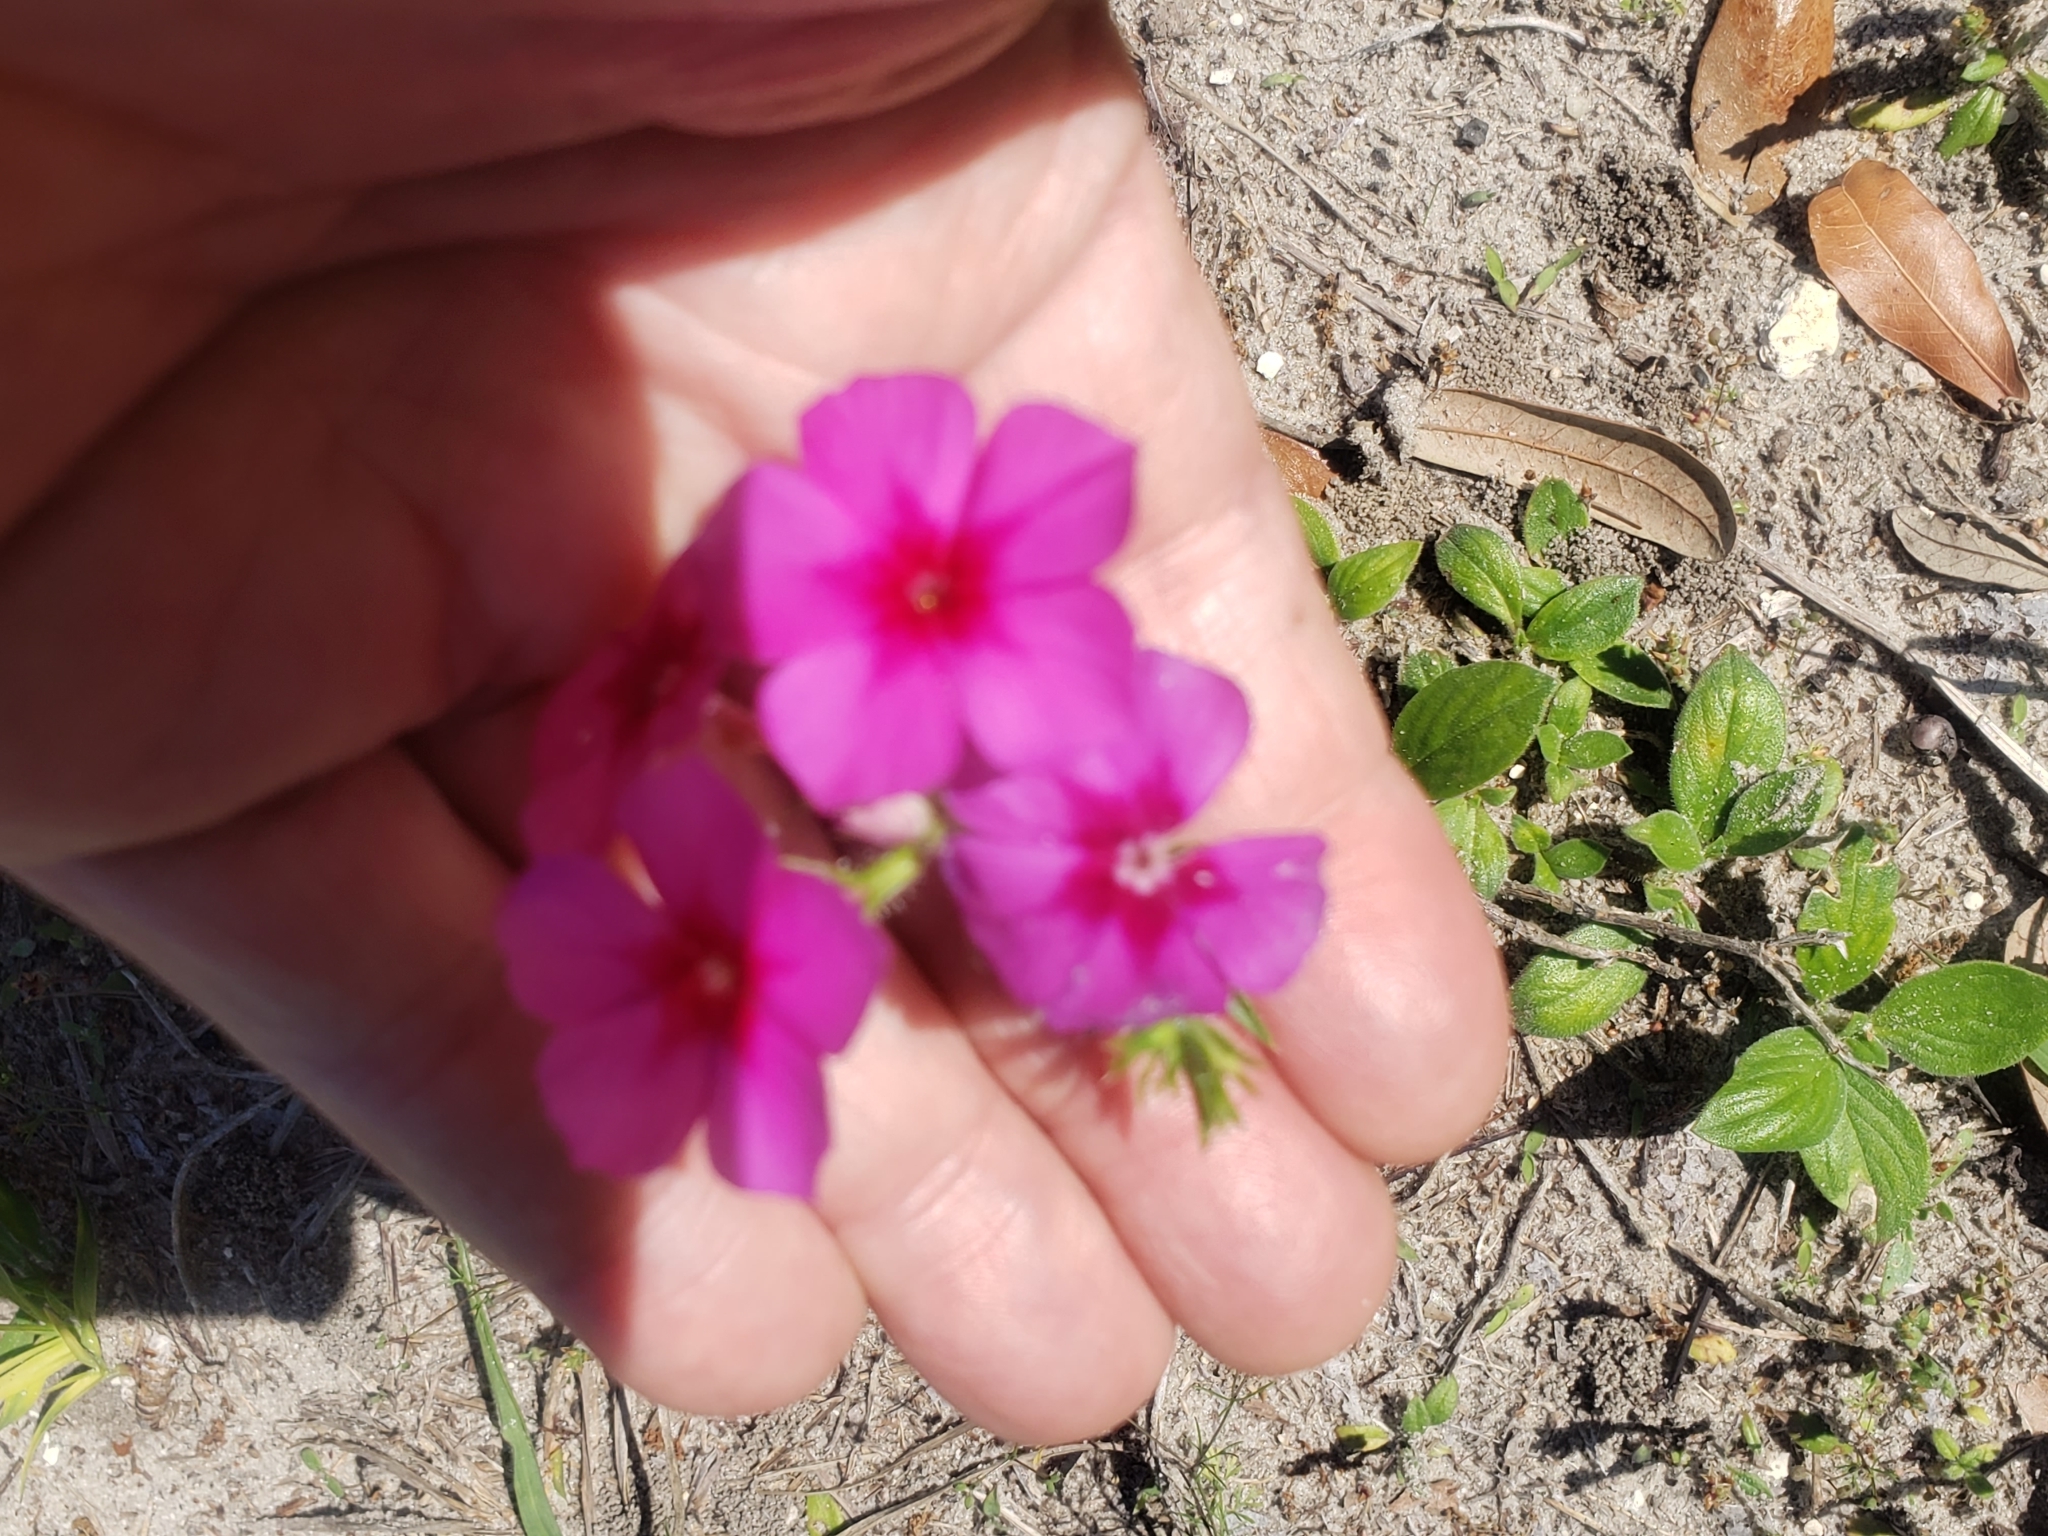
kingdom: Plantae
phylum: Tracheophyta
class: Magnoliopsida
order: Ericales
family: Polemoniaceae
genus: Phlox
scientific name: Phlox drummondii
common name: Drummond's phlox
